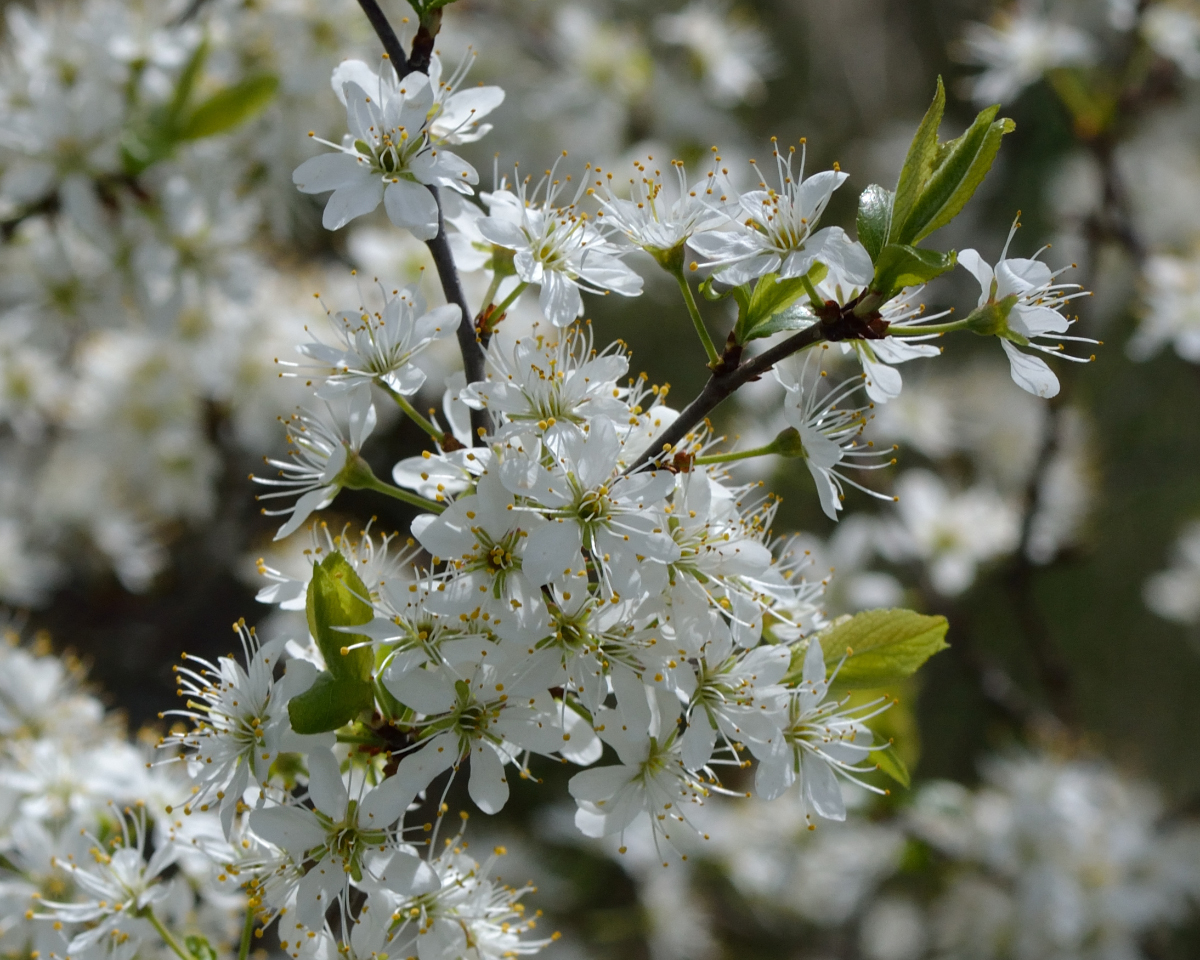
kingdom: Plantae
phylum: Tracheophyta
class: Magnoliopsida
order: Rosales
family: Rosaceae
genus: Prunus
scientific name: Prunus spinosa
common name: Blackthorn
